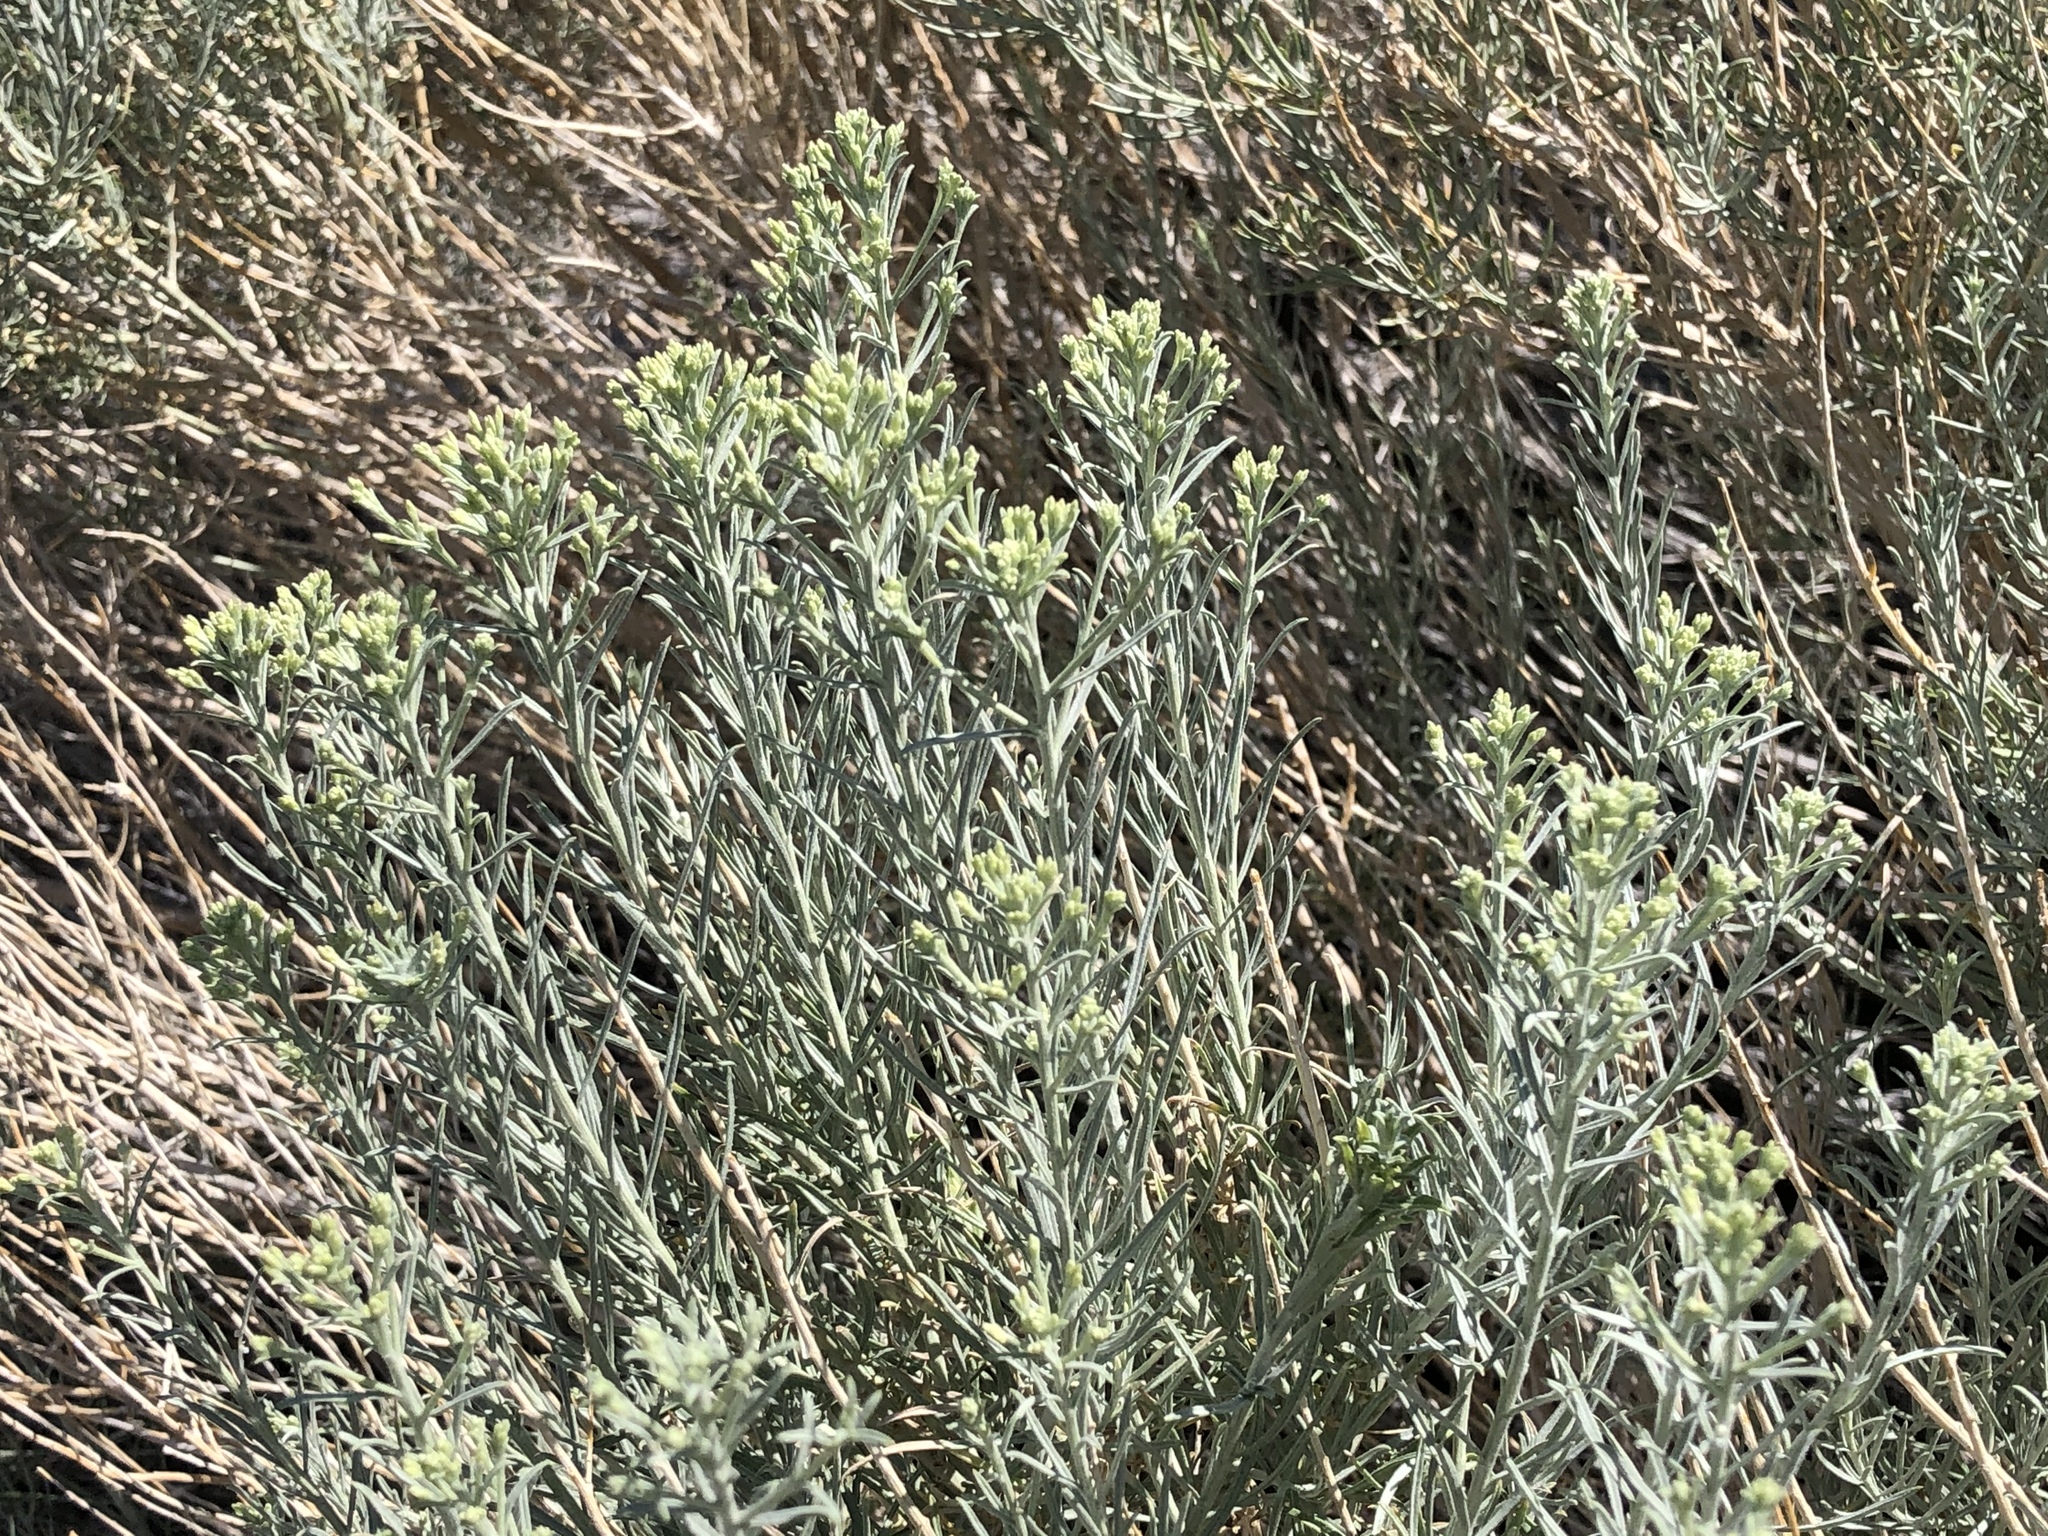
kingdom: Plantae
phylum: Tracheophyta
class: Magnoliopsida
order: Asterales
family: Asteraceae
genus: Ericameria
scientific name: Ericameria nauseosa
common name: Rubber rabbitbrush
